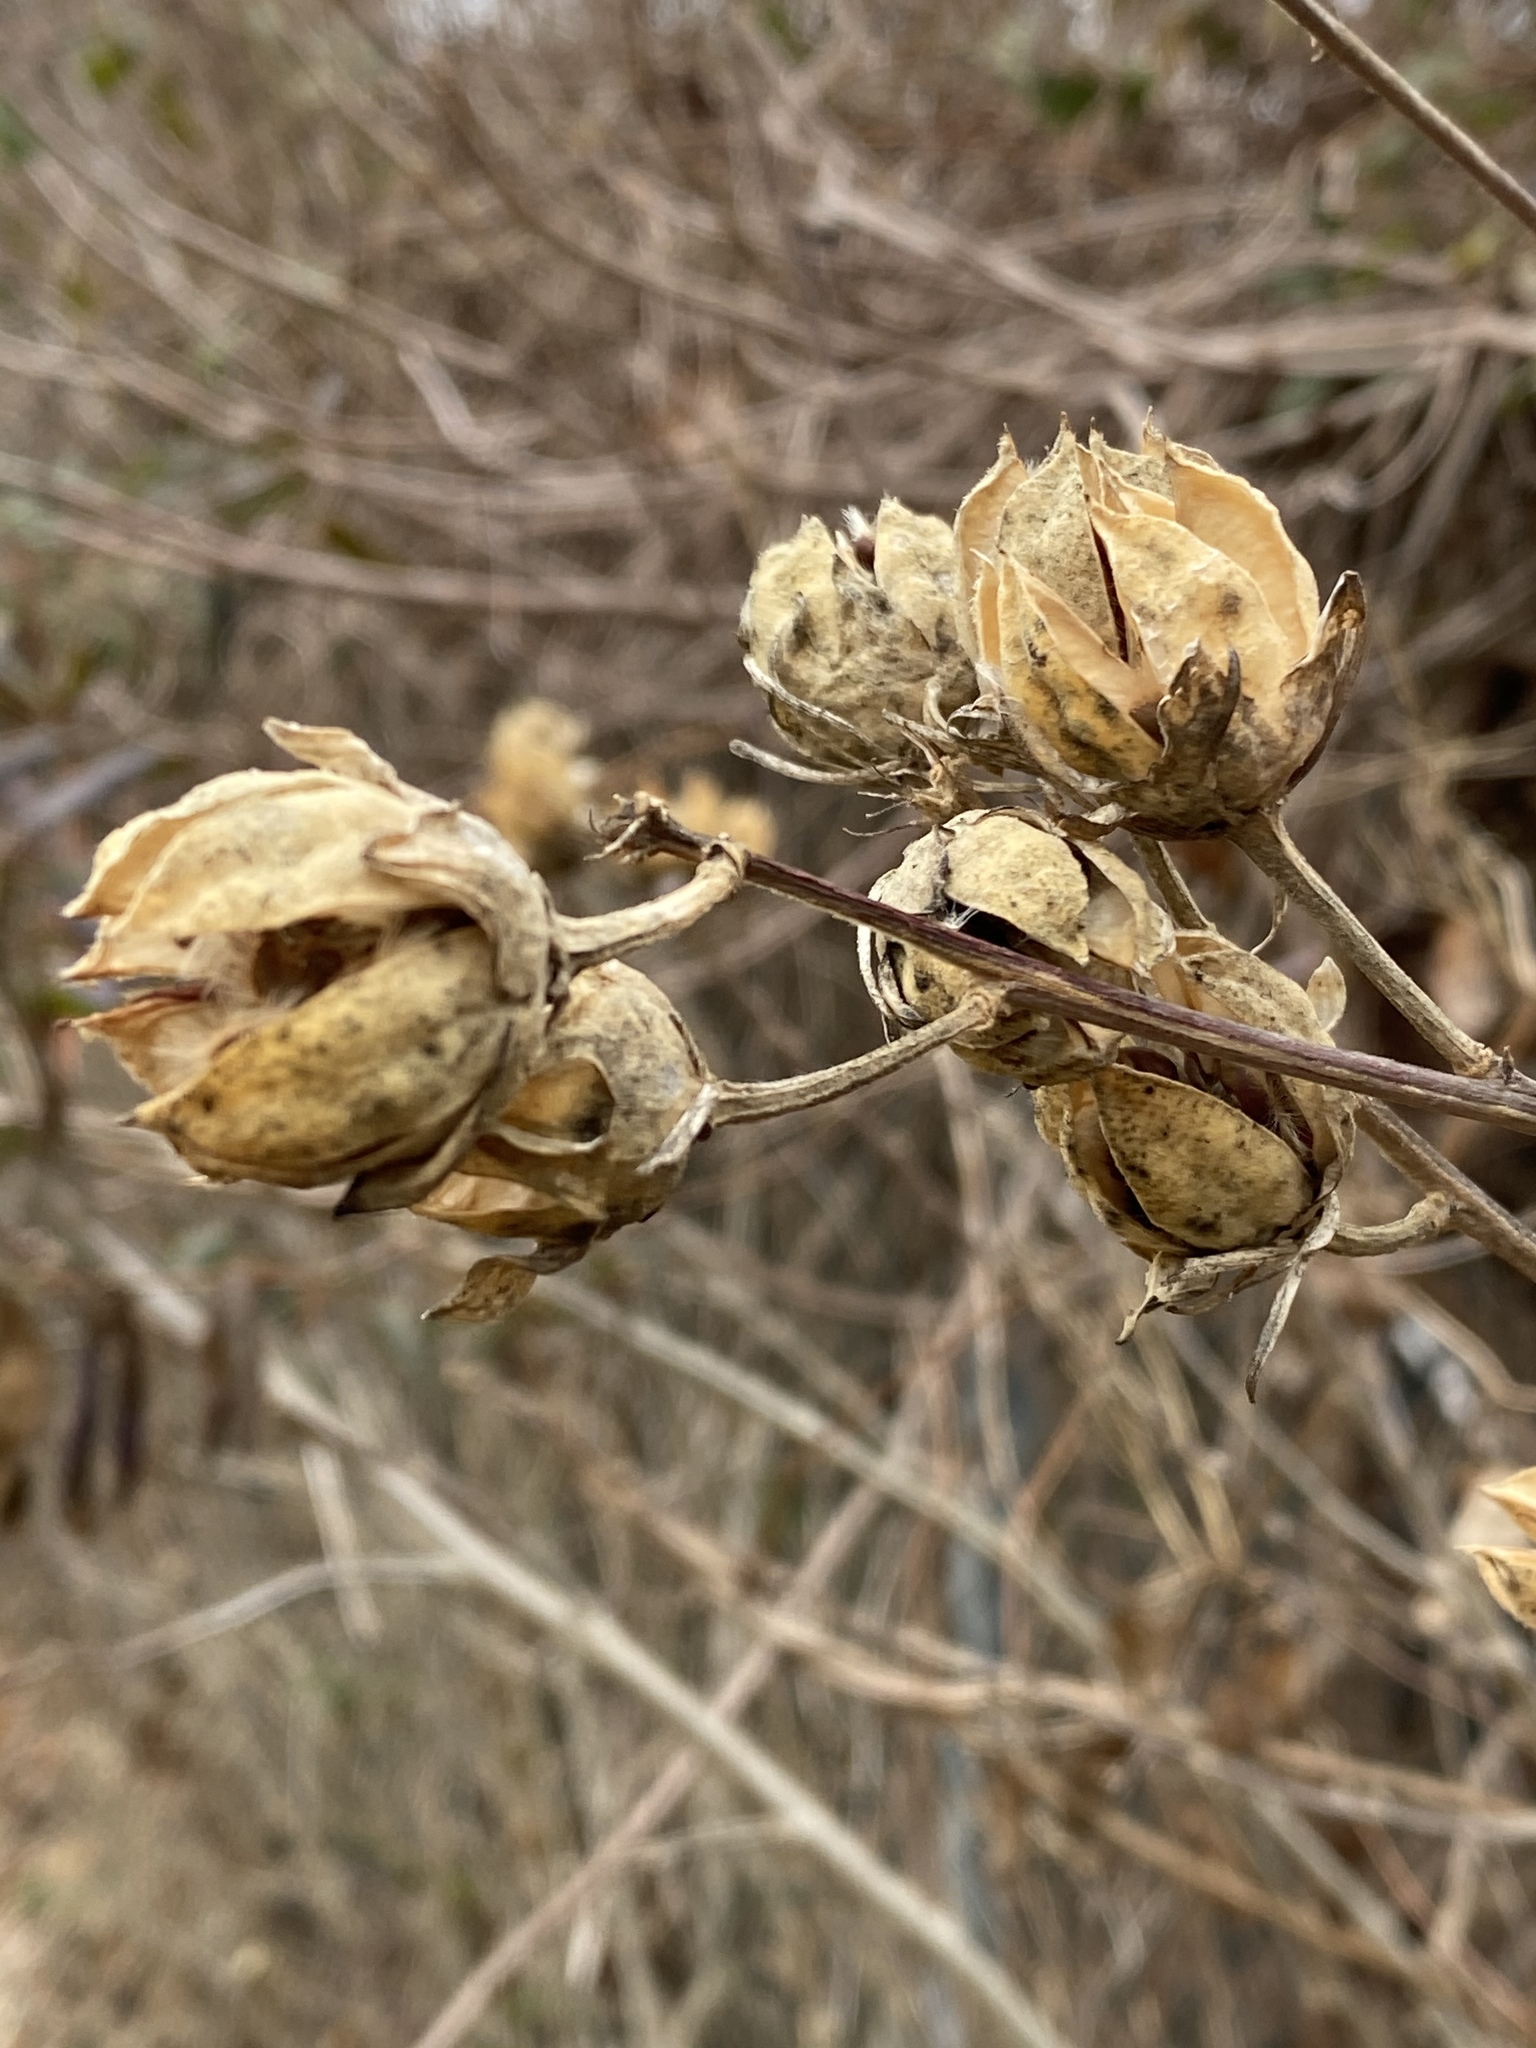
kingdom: Plantae
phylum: Tracheophyta
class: Magnoliopsida
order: Malvales
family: Malvaceae
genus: Hibiscus
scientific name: Hibiscus syriacus
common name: Syrian ketmia
